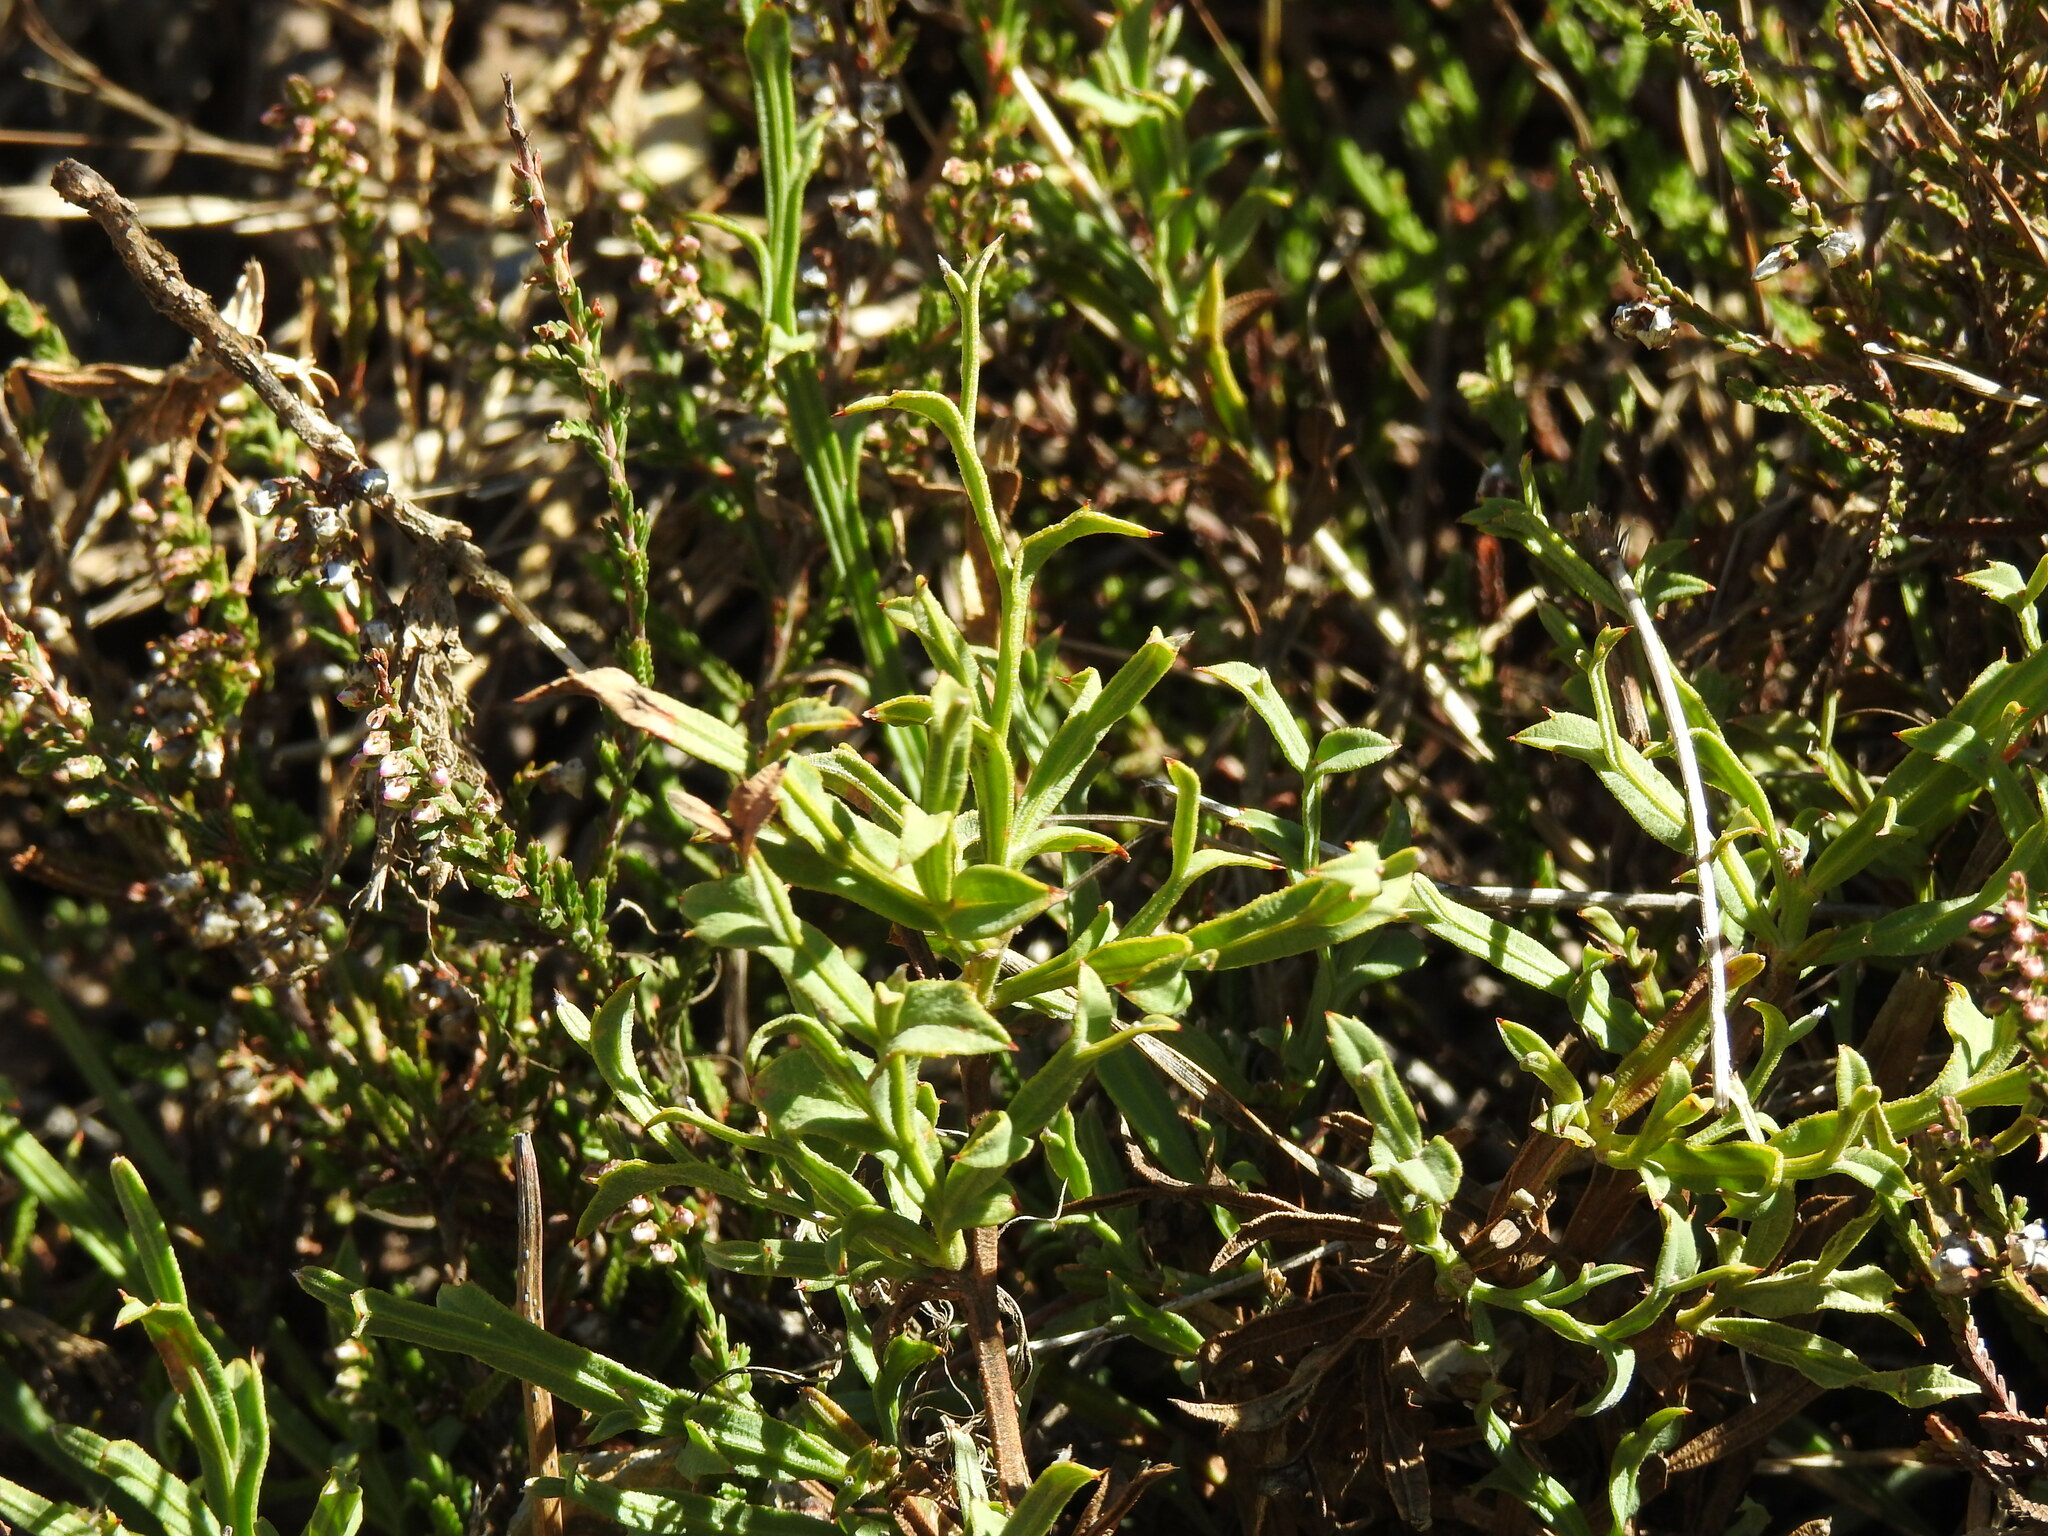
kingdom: Plantae
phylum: Tracheophyta
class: Magnoliopsida
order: Fabales
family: Fabaceae
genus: Genista
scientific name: Genista tridentata
